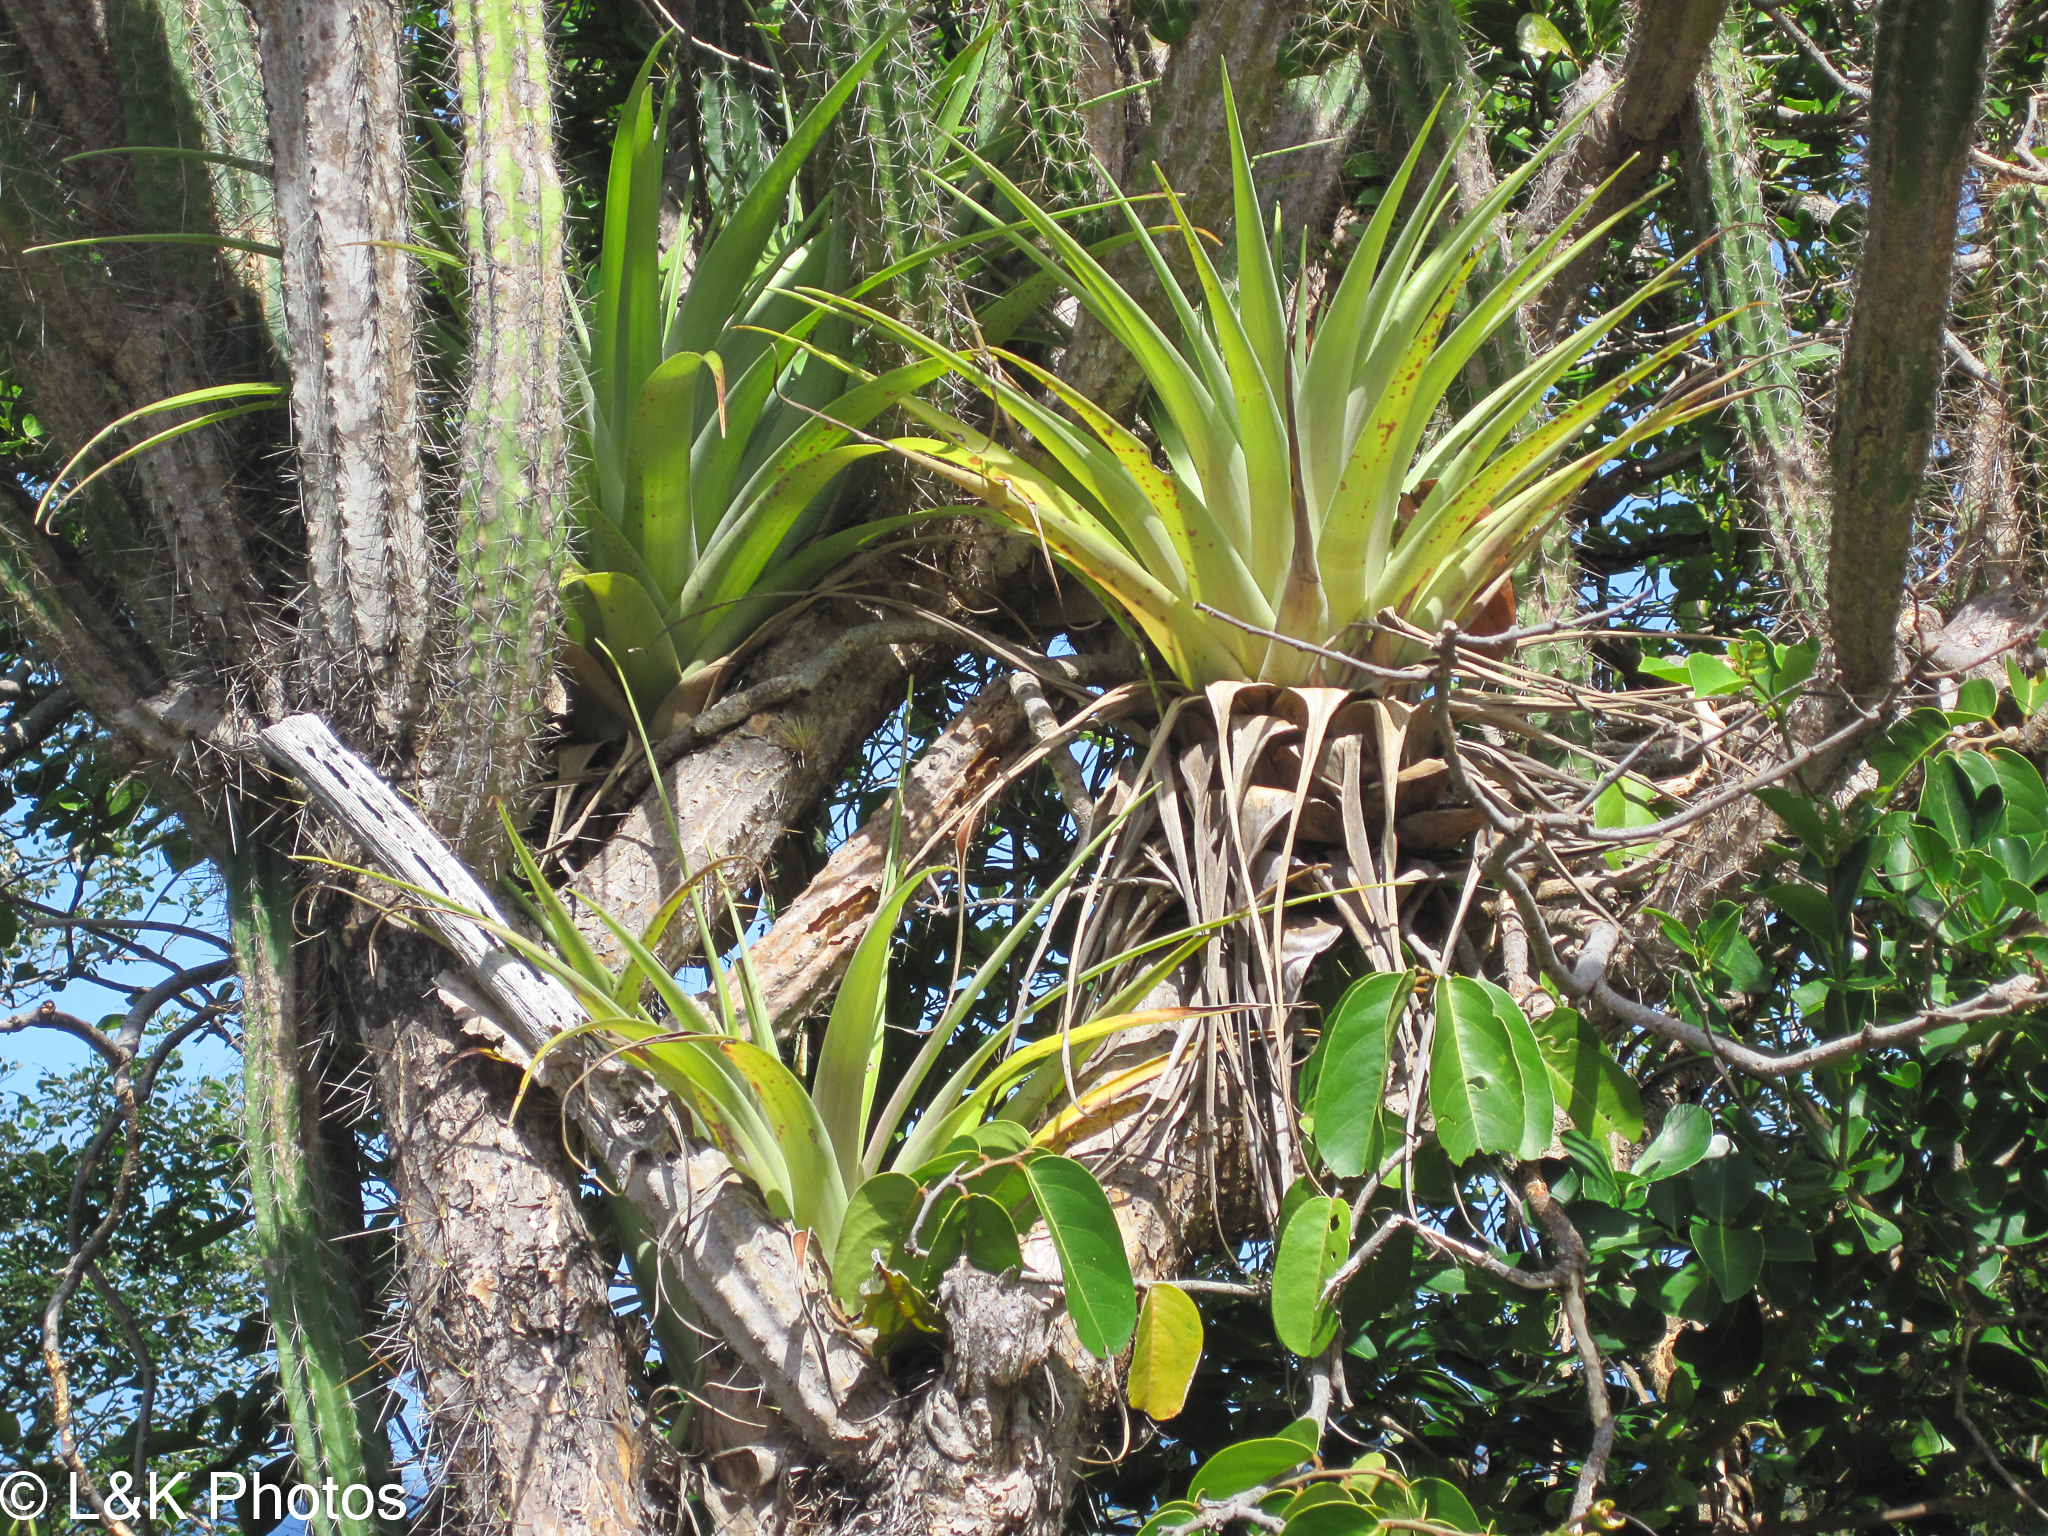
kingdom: Plantae
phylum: Tracheophyta
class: Liliopsida
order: Poales
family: Bromeliaceae
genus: Tillandsia
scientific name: Tillandsia utriculata
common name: Wild pine
